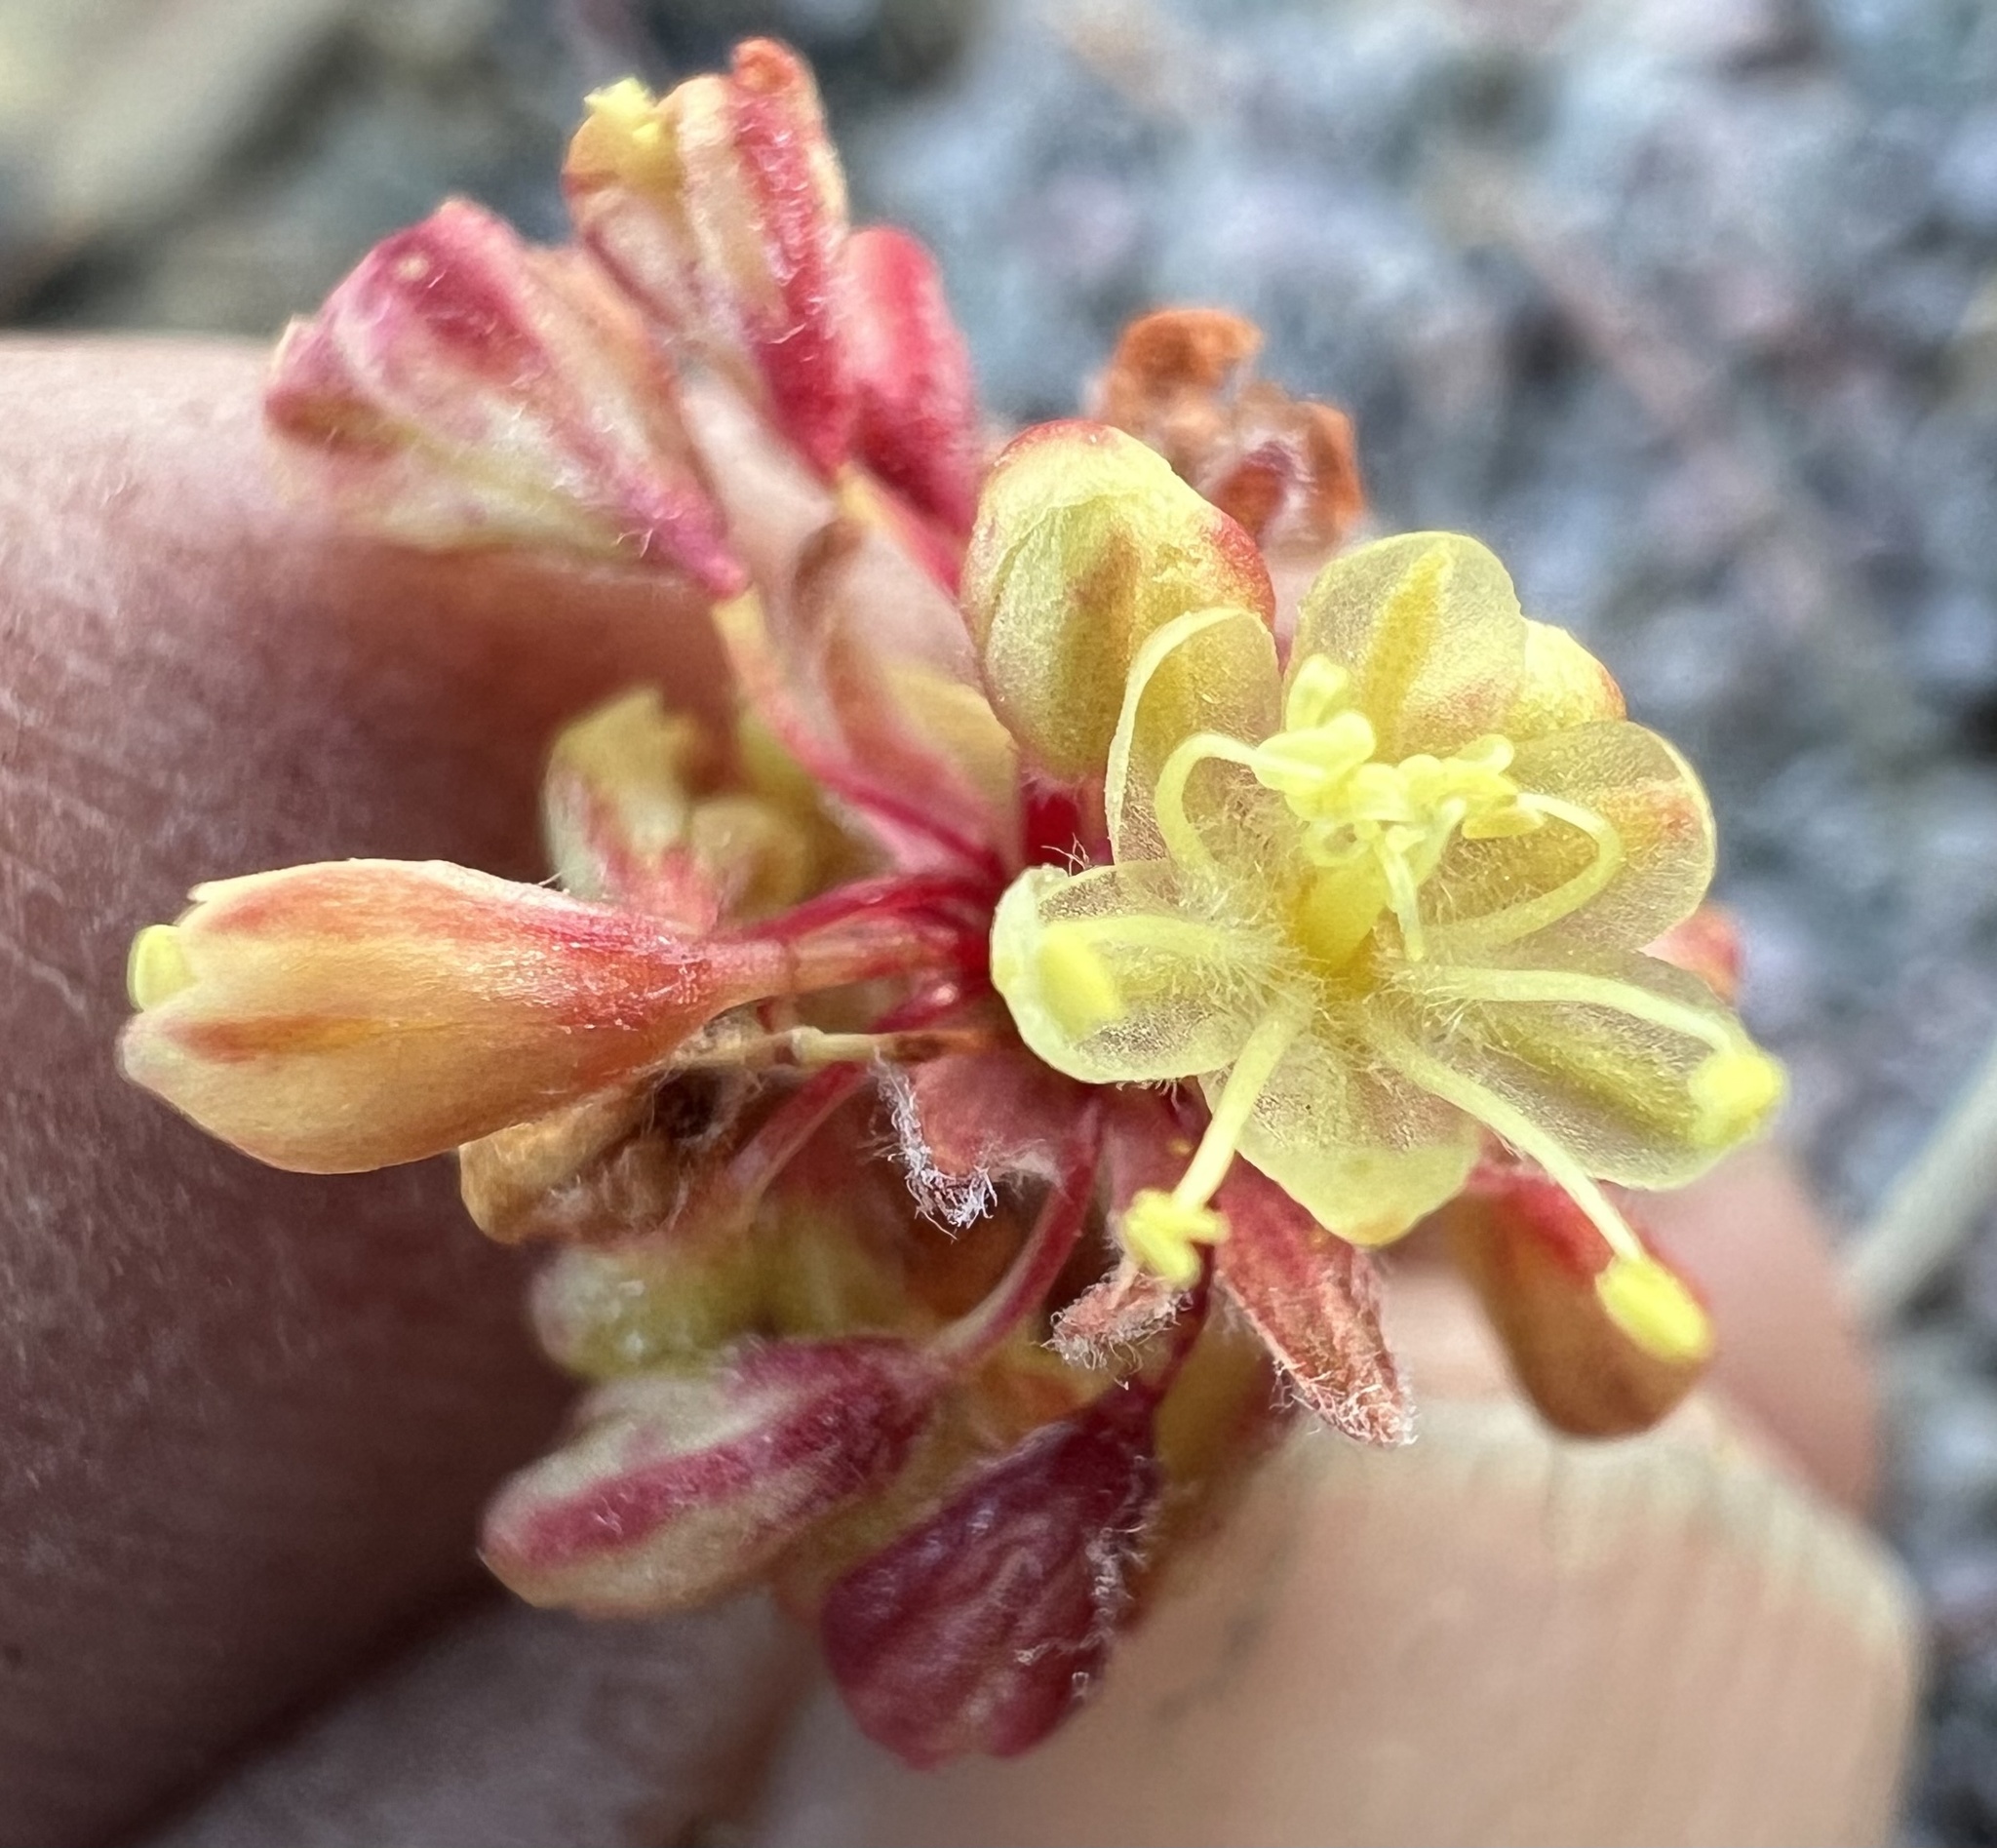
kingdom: Plantae
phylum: Tracheophyta
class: Magnoliopsida
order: Caryophyllales
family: Polygonaceae
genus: Eriogonum
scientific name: Eriogonum caespitosum
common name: Matted wild buckwheat
